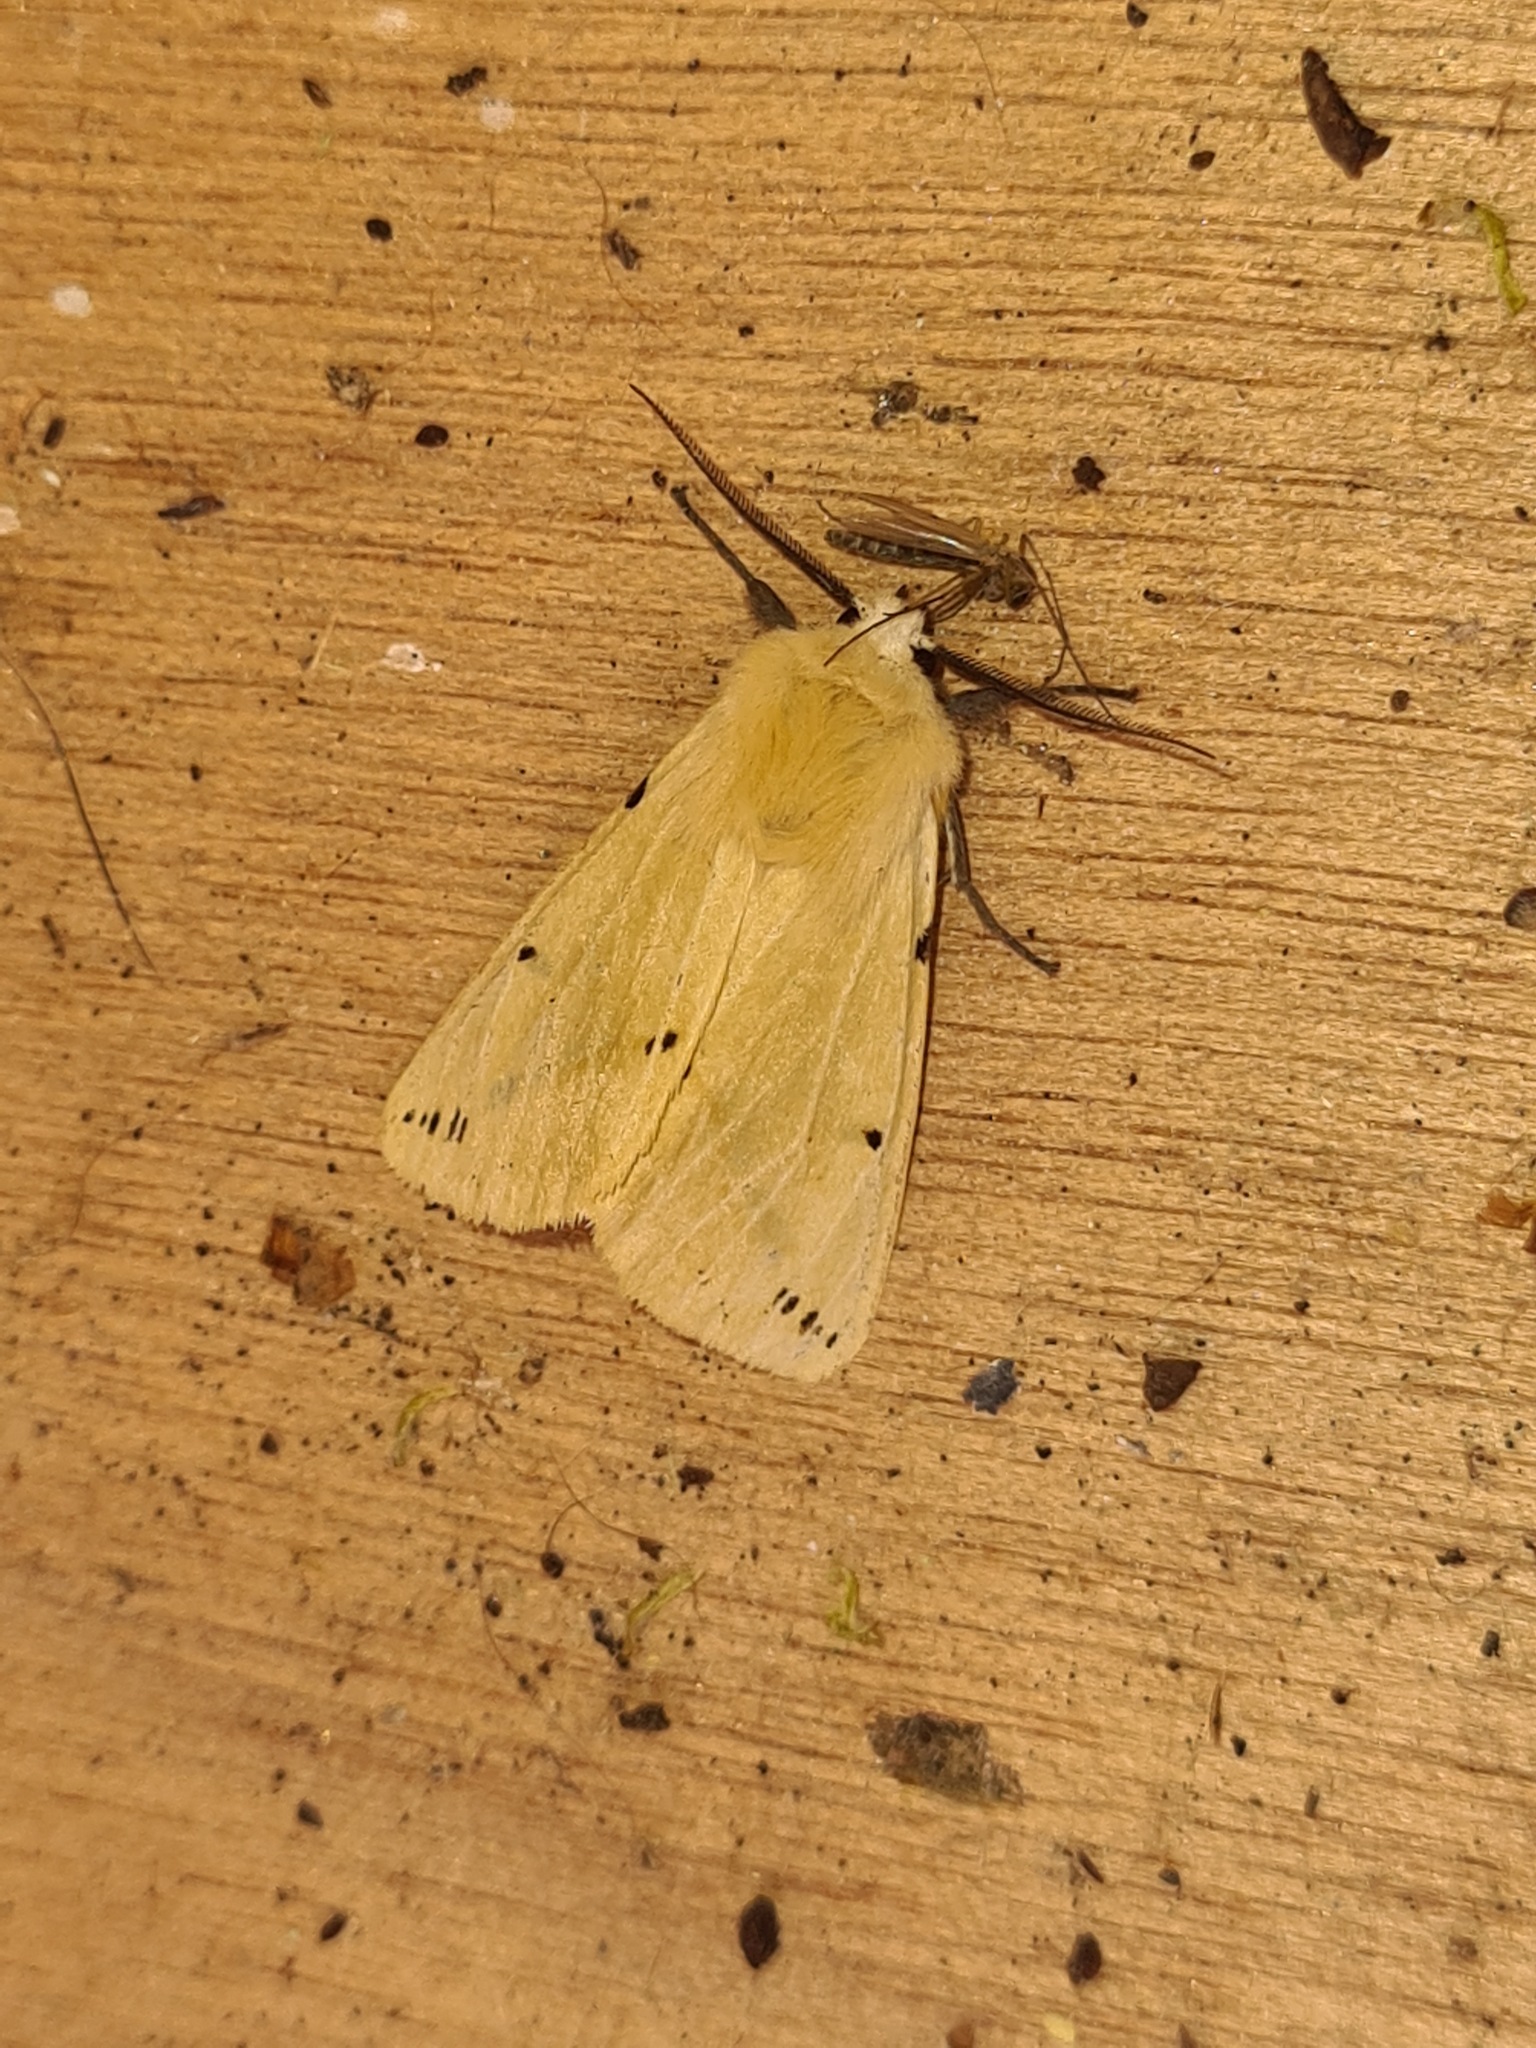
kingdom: Animalia
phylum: Arthropoda
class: Insecta
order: Lepidoptera
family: Erebidae
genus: Spilarctia
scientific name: Spilarctia lutea
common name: Buff ermine
